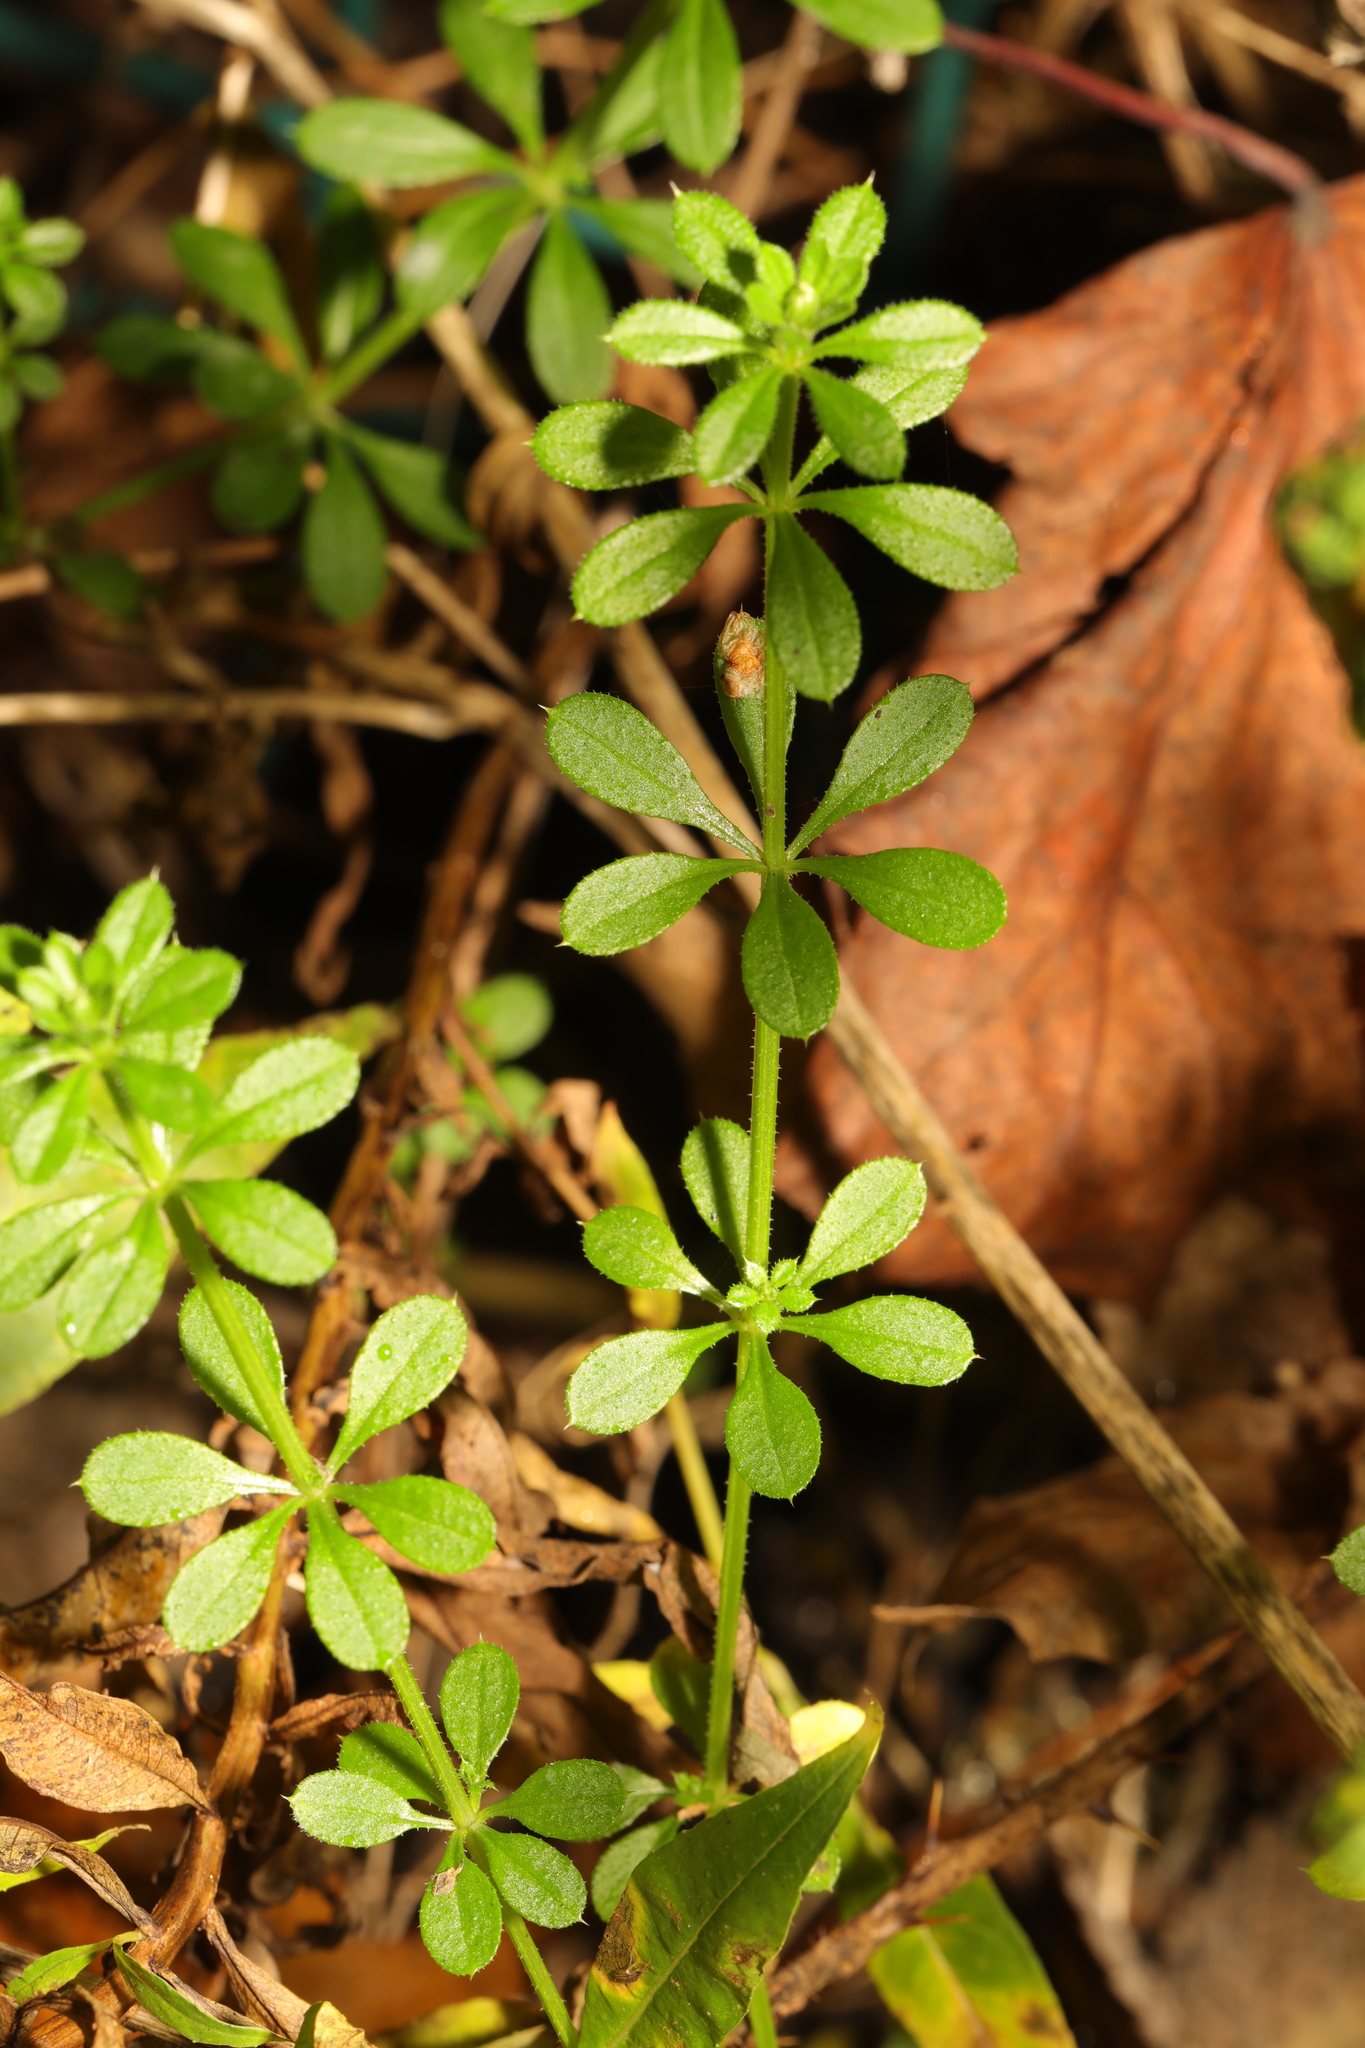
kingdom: Plantae
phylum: Tracheophyta
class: Magnoliopsida
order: Gentianales
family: Rubiaceae
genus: Galium
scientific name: Galium aparine
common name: Cleavers
